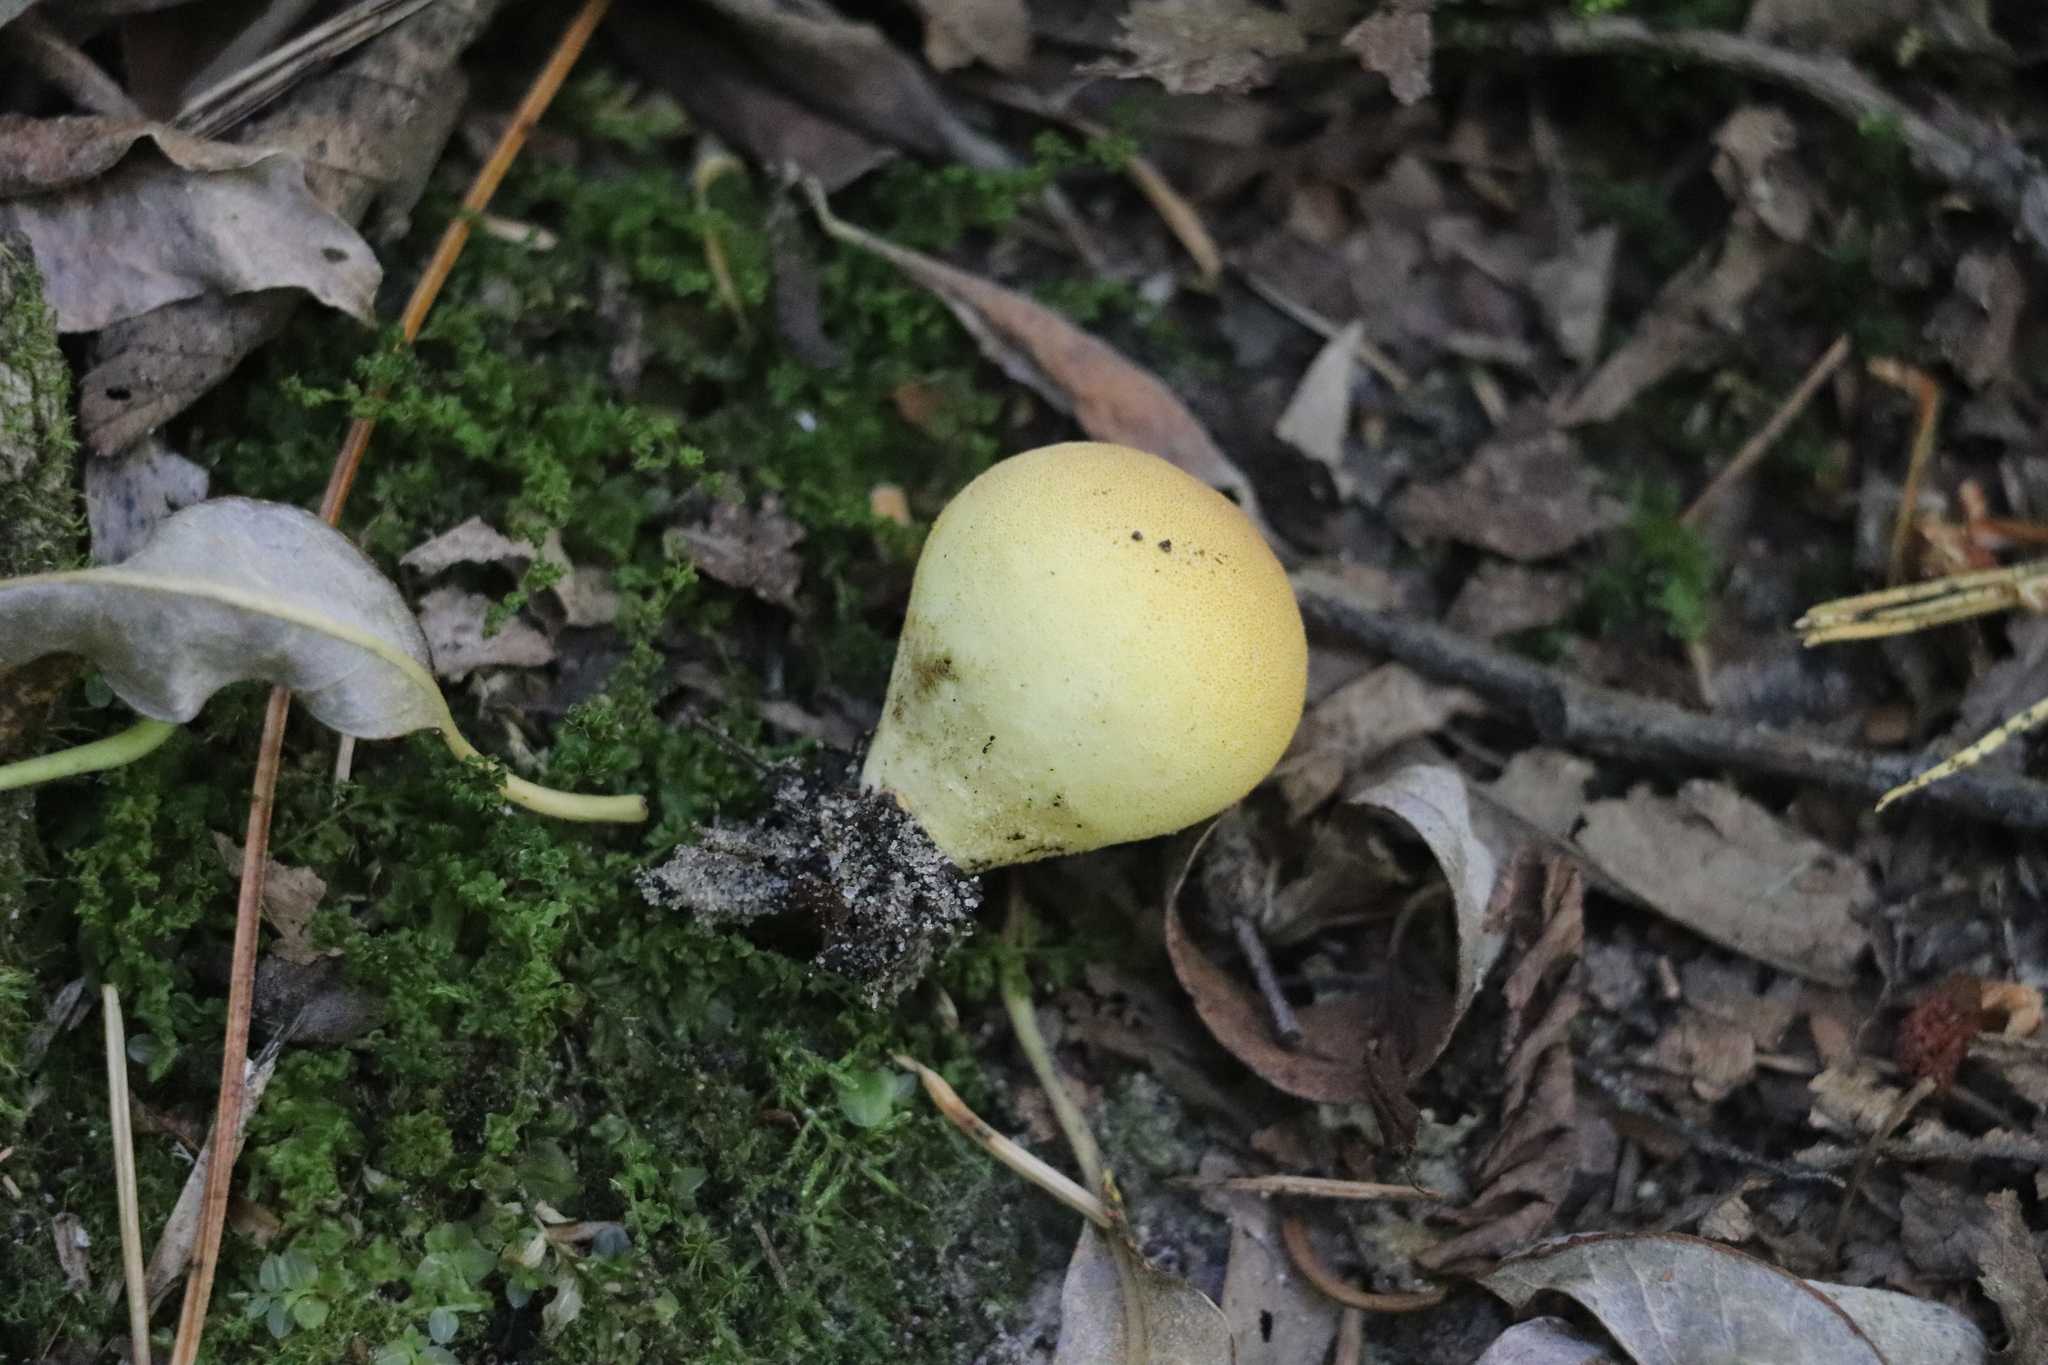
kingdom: Fungi
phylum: Basidiomycota
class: Agaricomycetes
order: Agaricales
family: Lycoperdaceae
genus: Bovista
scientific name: Bovista aestivalis
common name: Deceiving bovist
